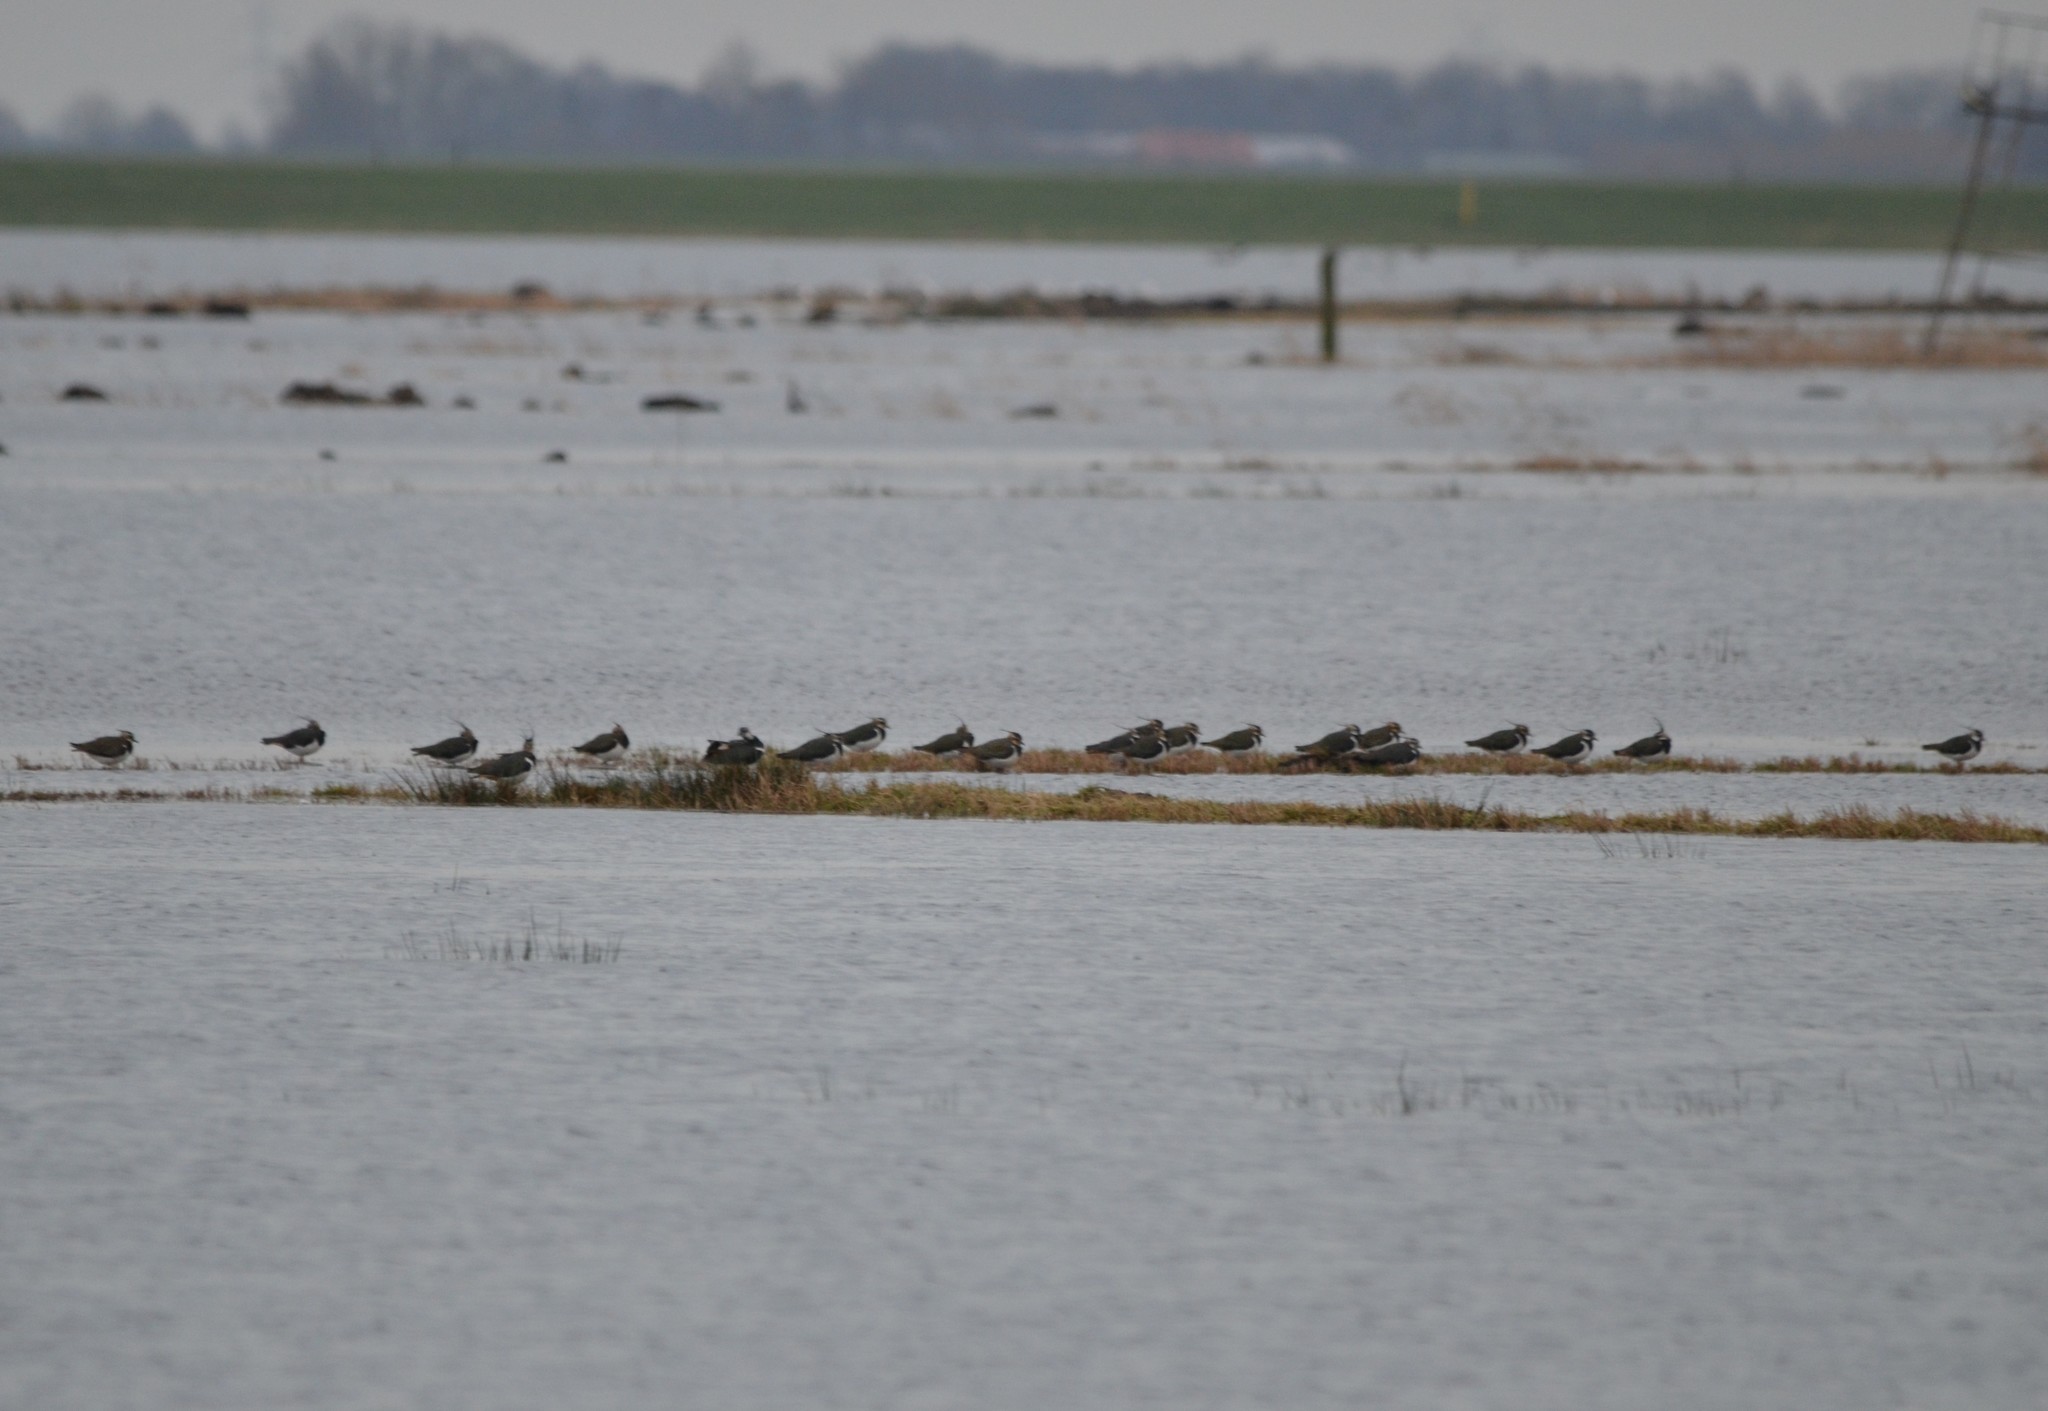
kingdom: Animalia
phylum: Chordata
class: Aves
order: Charadriiformes
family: Charadriidae
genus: Vanellus
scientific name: Vanellus vanellus
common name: Northern lapwing
